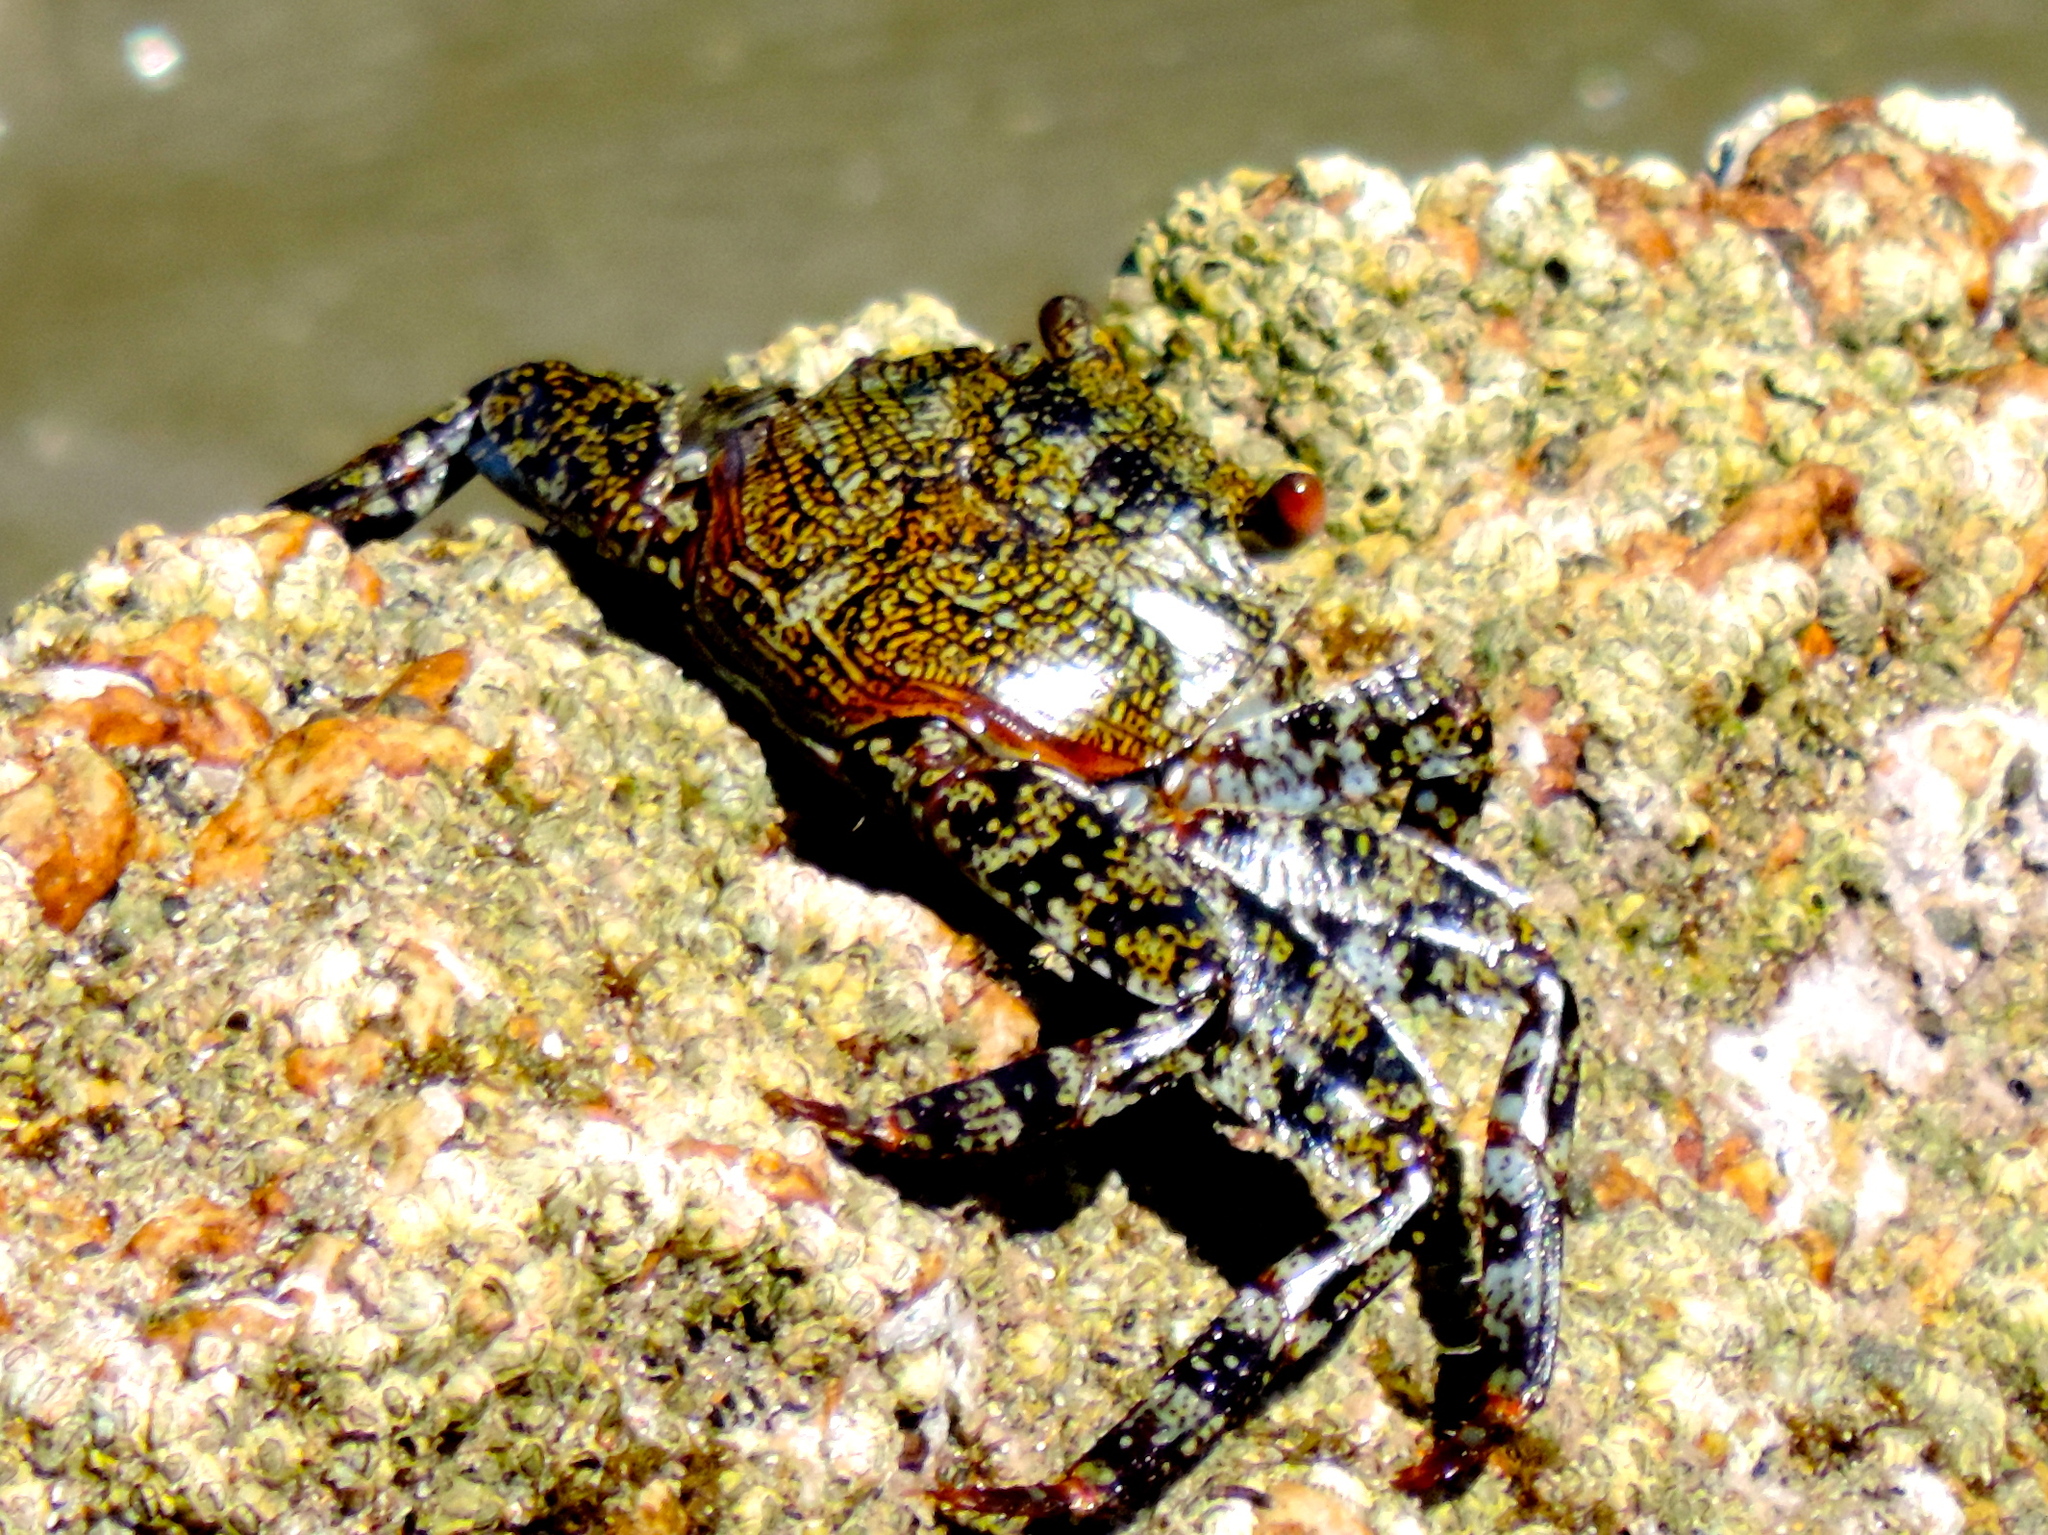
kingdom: Animalia
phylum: Arthropoda
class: Malacostraca
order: Decapoda
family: Grapsidae
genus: Grapsus
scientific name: Grapsus grapsus
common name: Sally lightfoot
